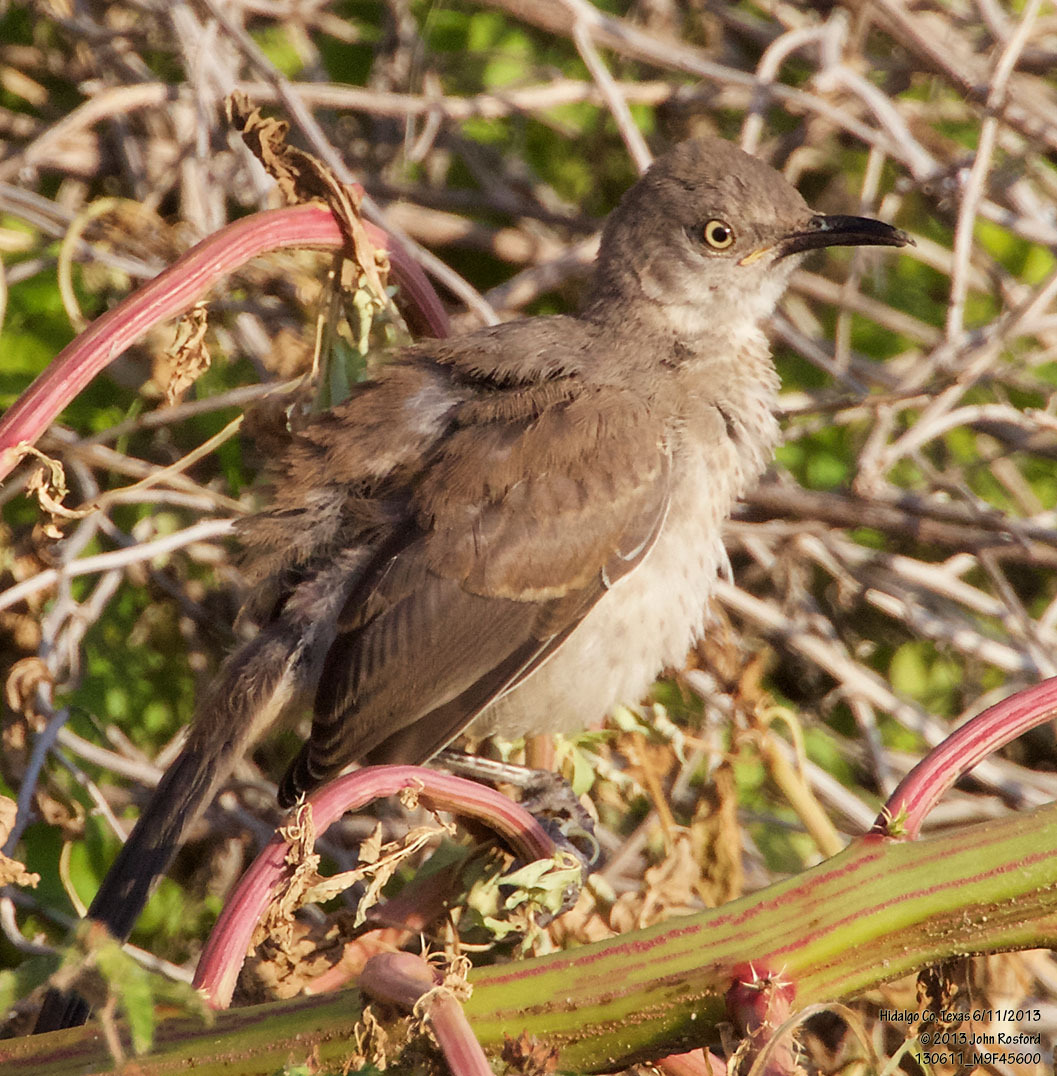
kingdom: Animalia
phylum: Chordata
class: Aves
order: Passeriformes
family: Mimidae
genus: Toxostoma
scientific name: Toxostoma curvirostre
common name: Curve-billed thrasher
